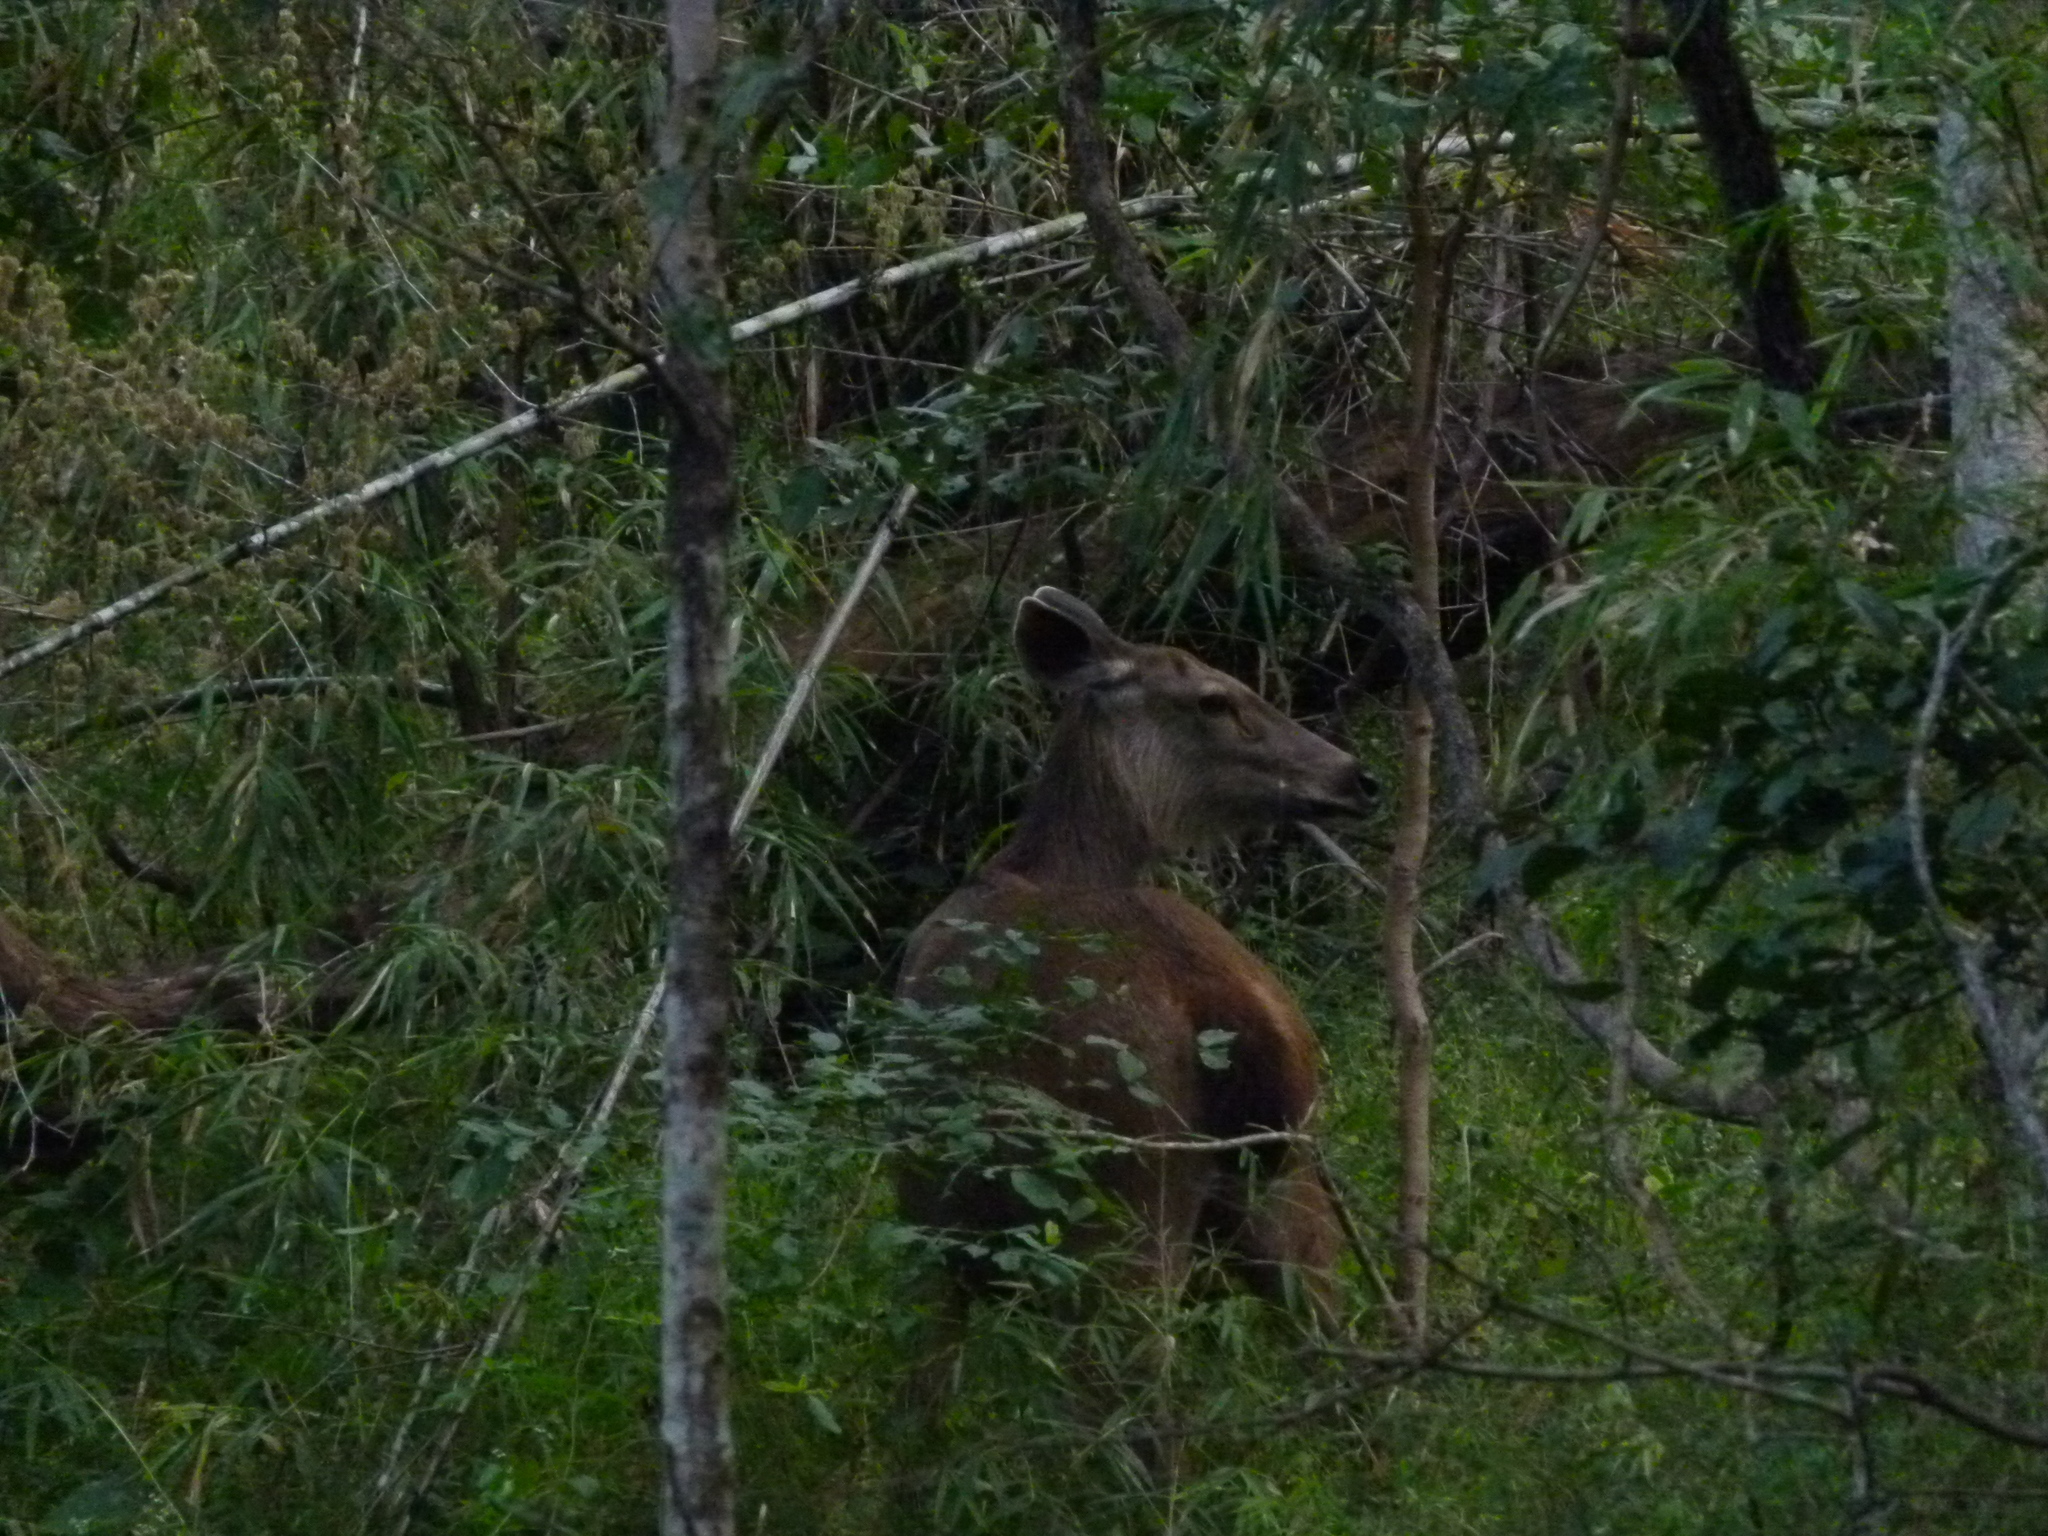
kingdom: Animalia
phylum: Chordata
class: Mammalia
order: Artiodactyla
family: Cervidae
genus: Rusa
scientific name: Rusa unicolor
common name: Sambar
